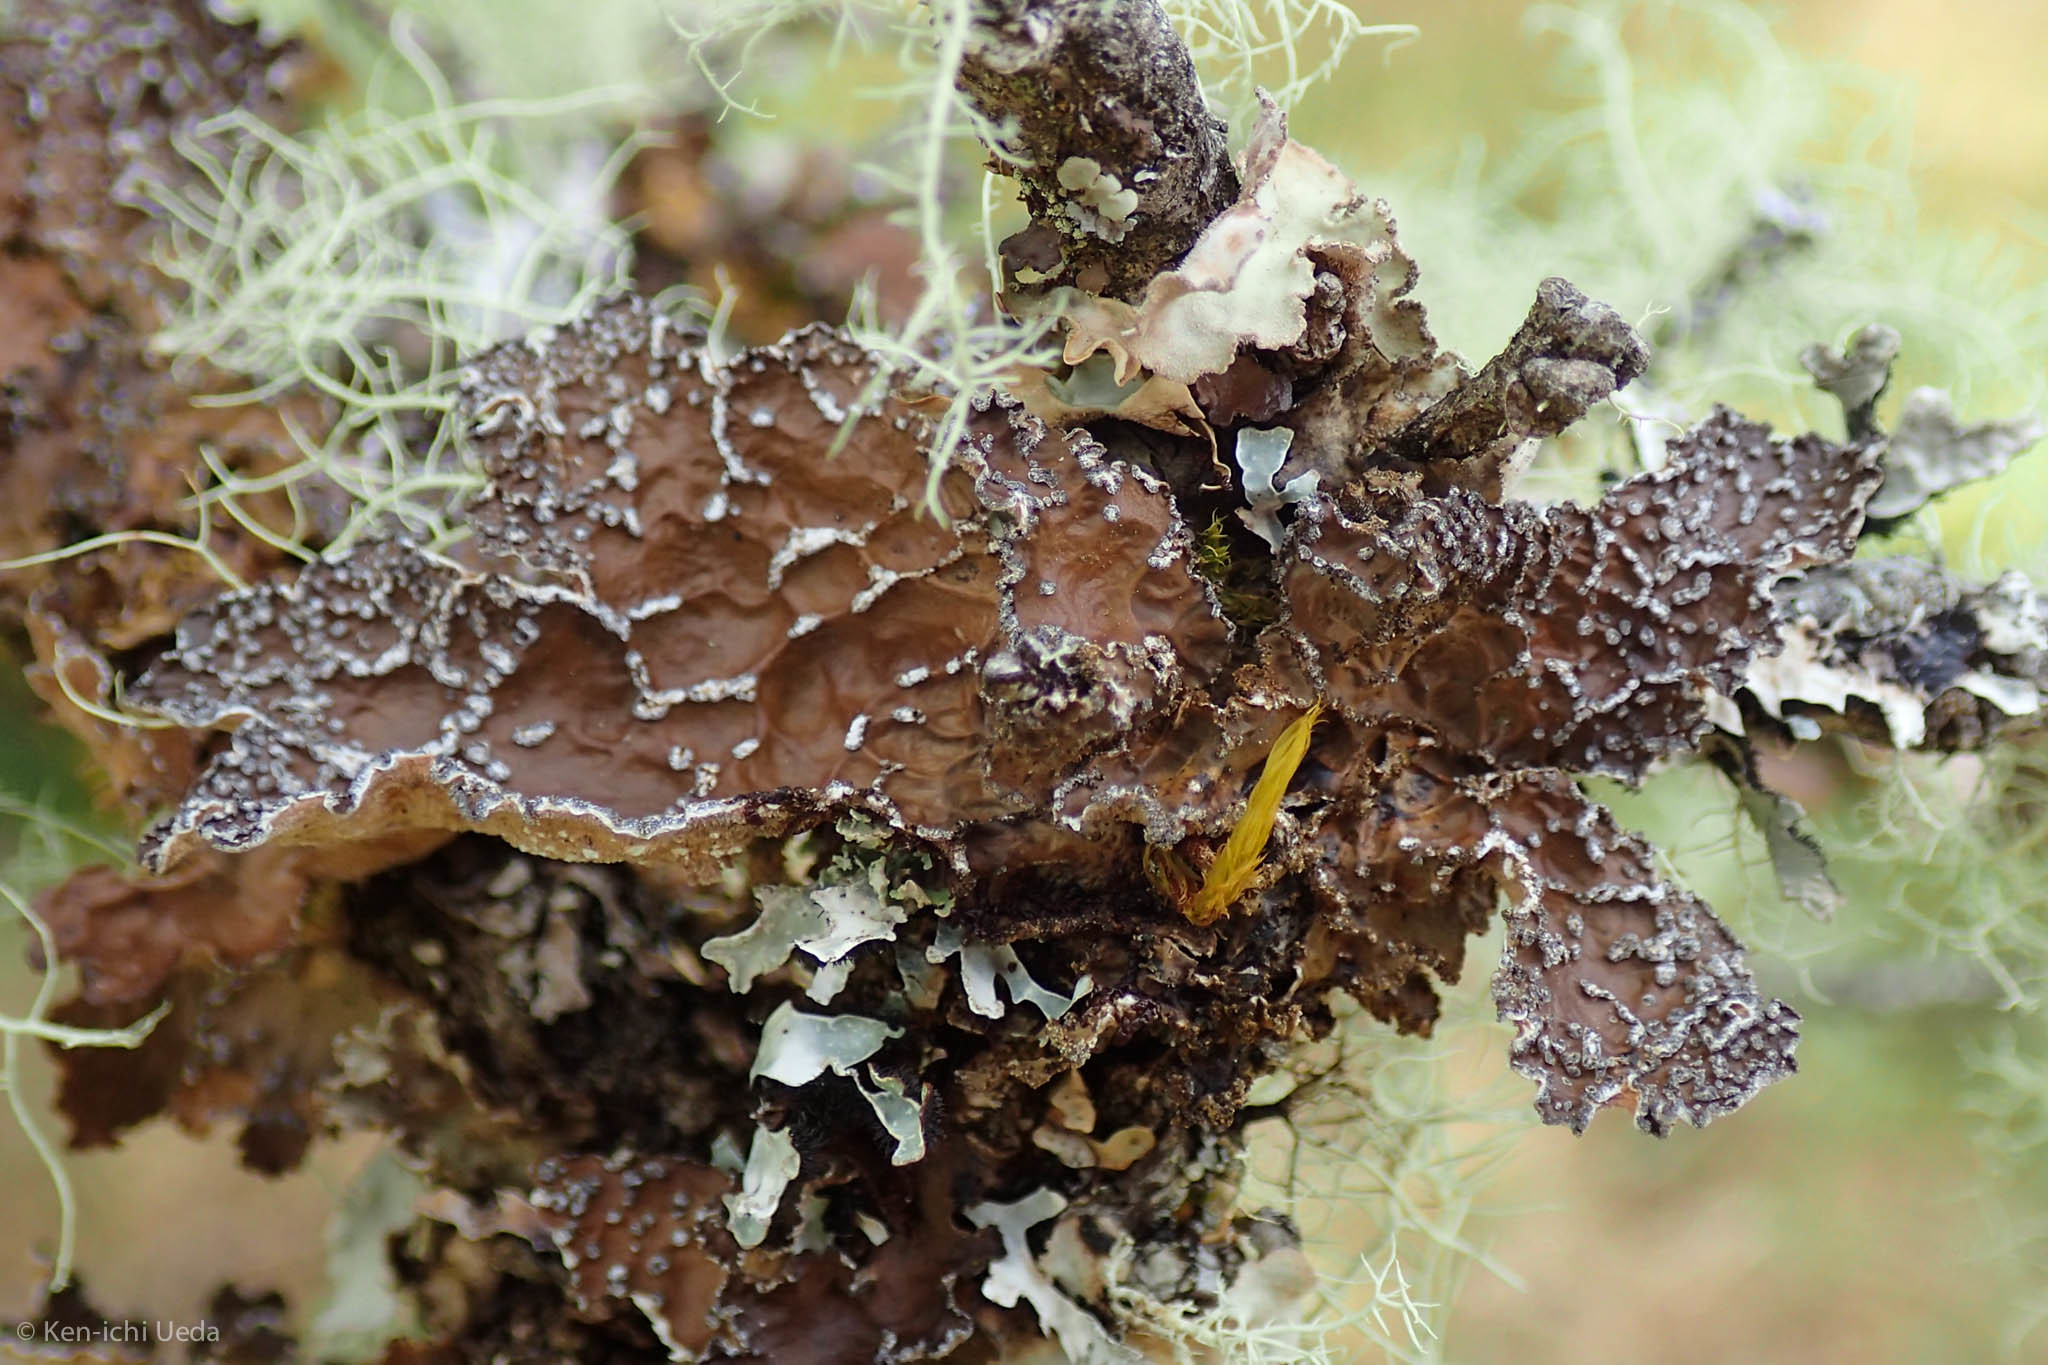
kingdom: Fungi
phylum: Ascomycota
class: Lecanoromycetes
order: Peltigerales
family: Lobariaceae
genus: Lobaria
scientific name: Lobaria anomala
